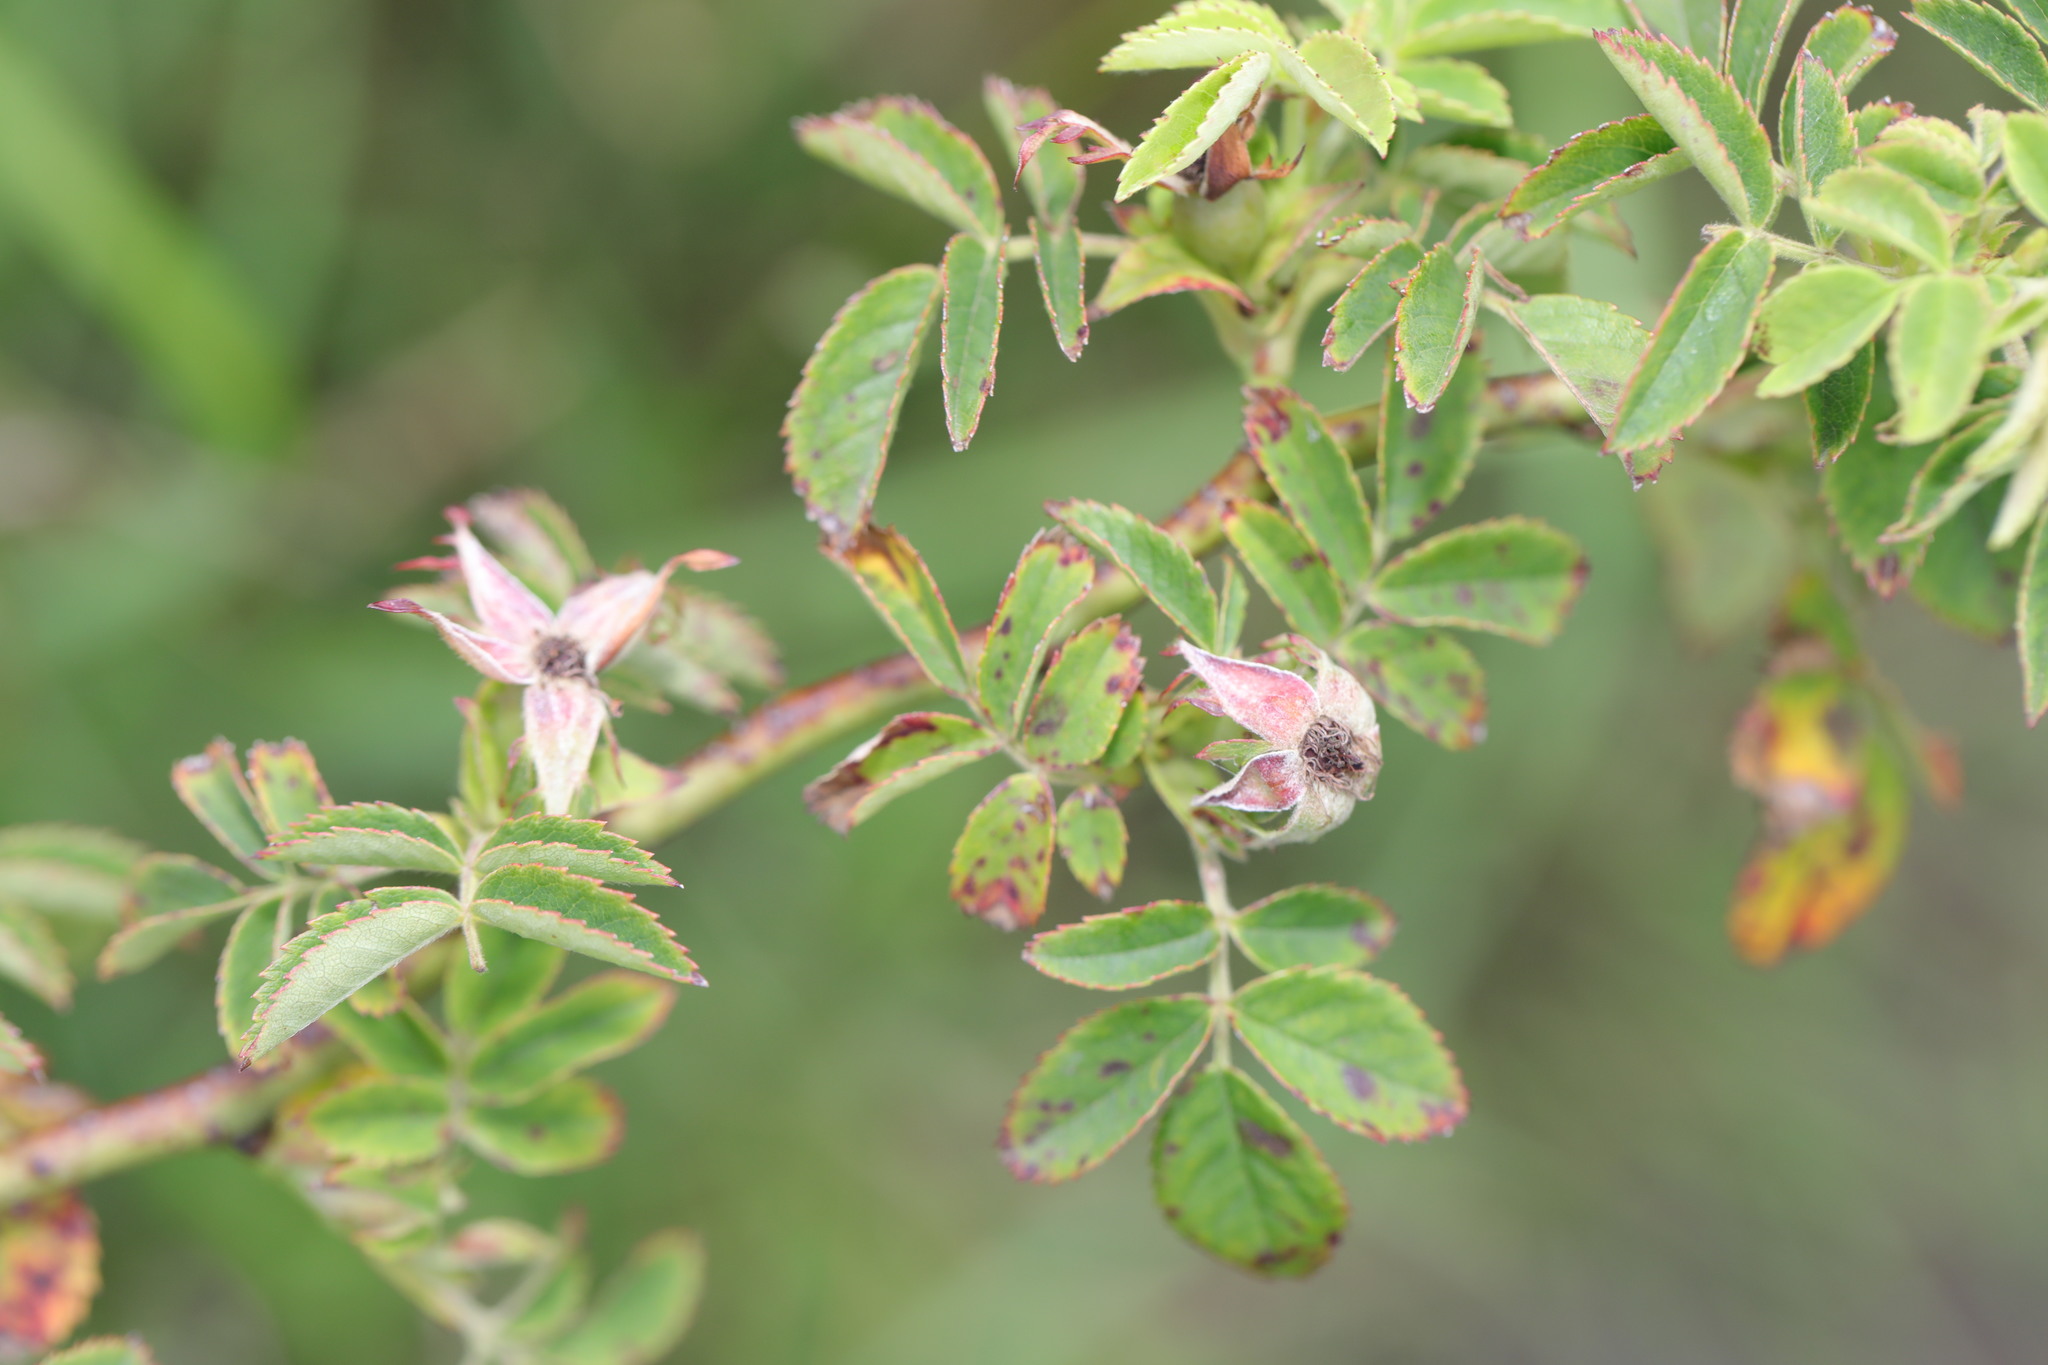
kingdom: Plantae
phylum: Tracheophyta
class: Magnoliopsida
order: Rosales
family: Rosaceae
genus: Rosa
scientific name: Rosa spinosissima
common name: Burnet rose
